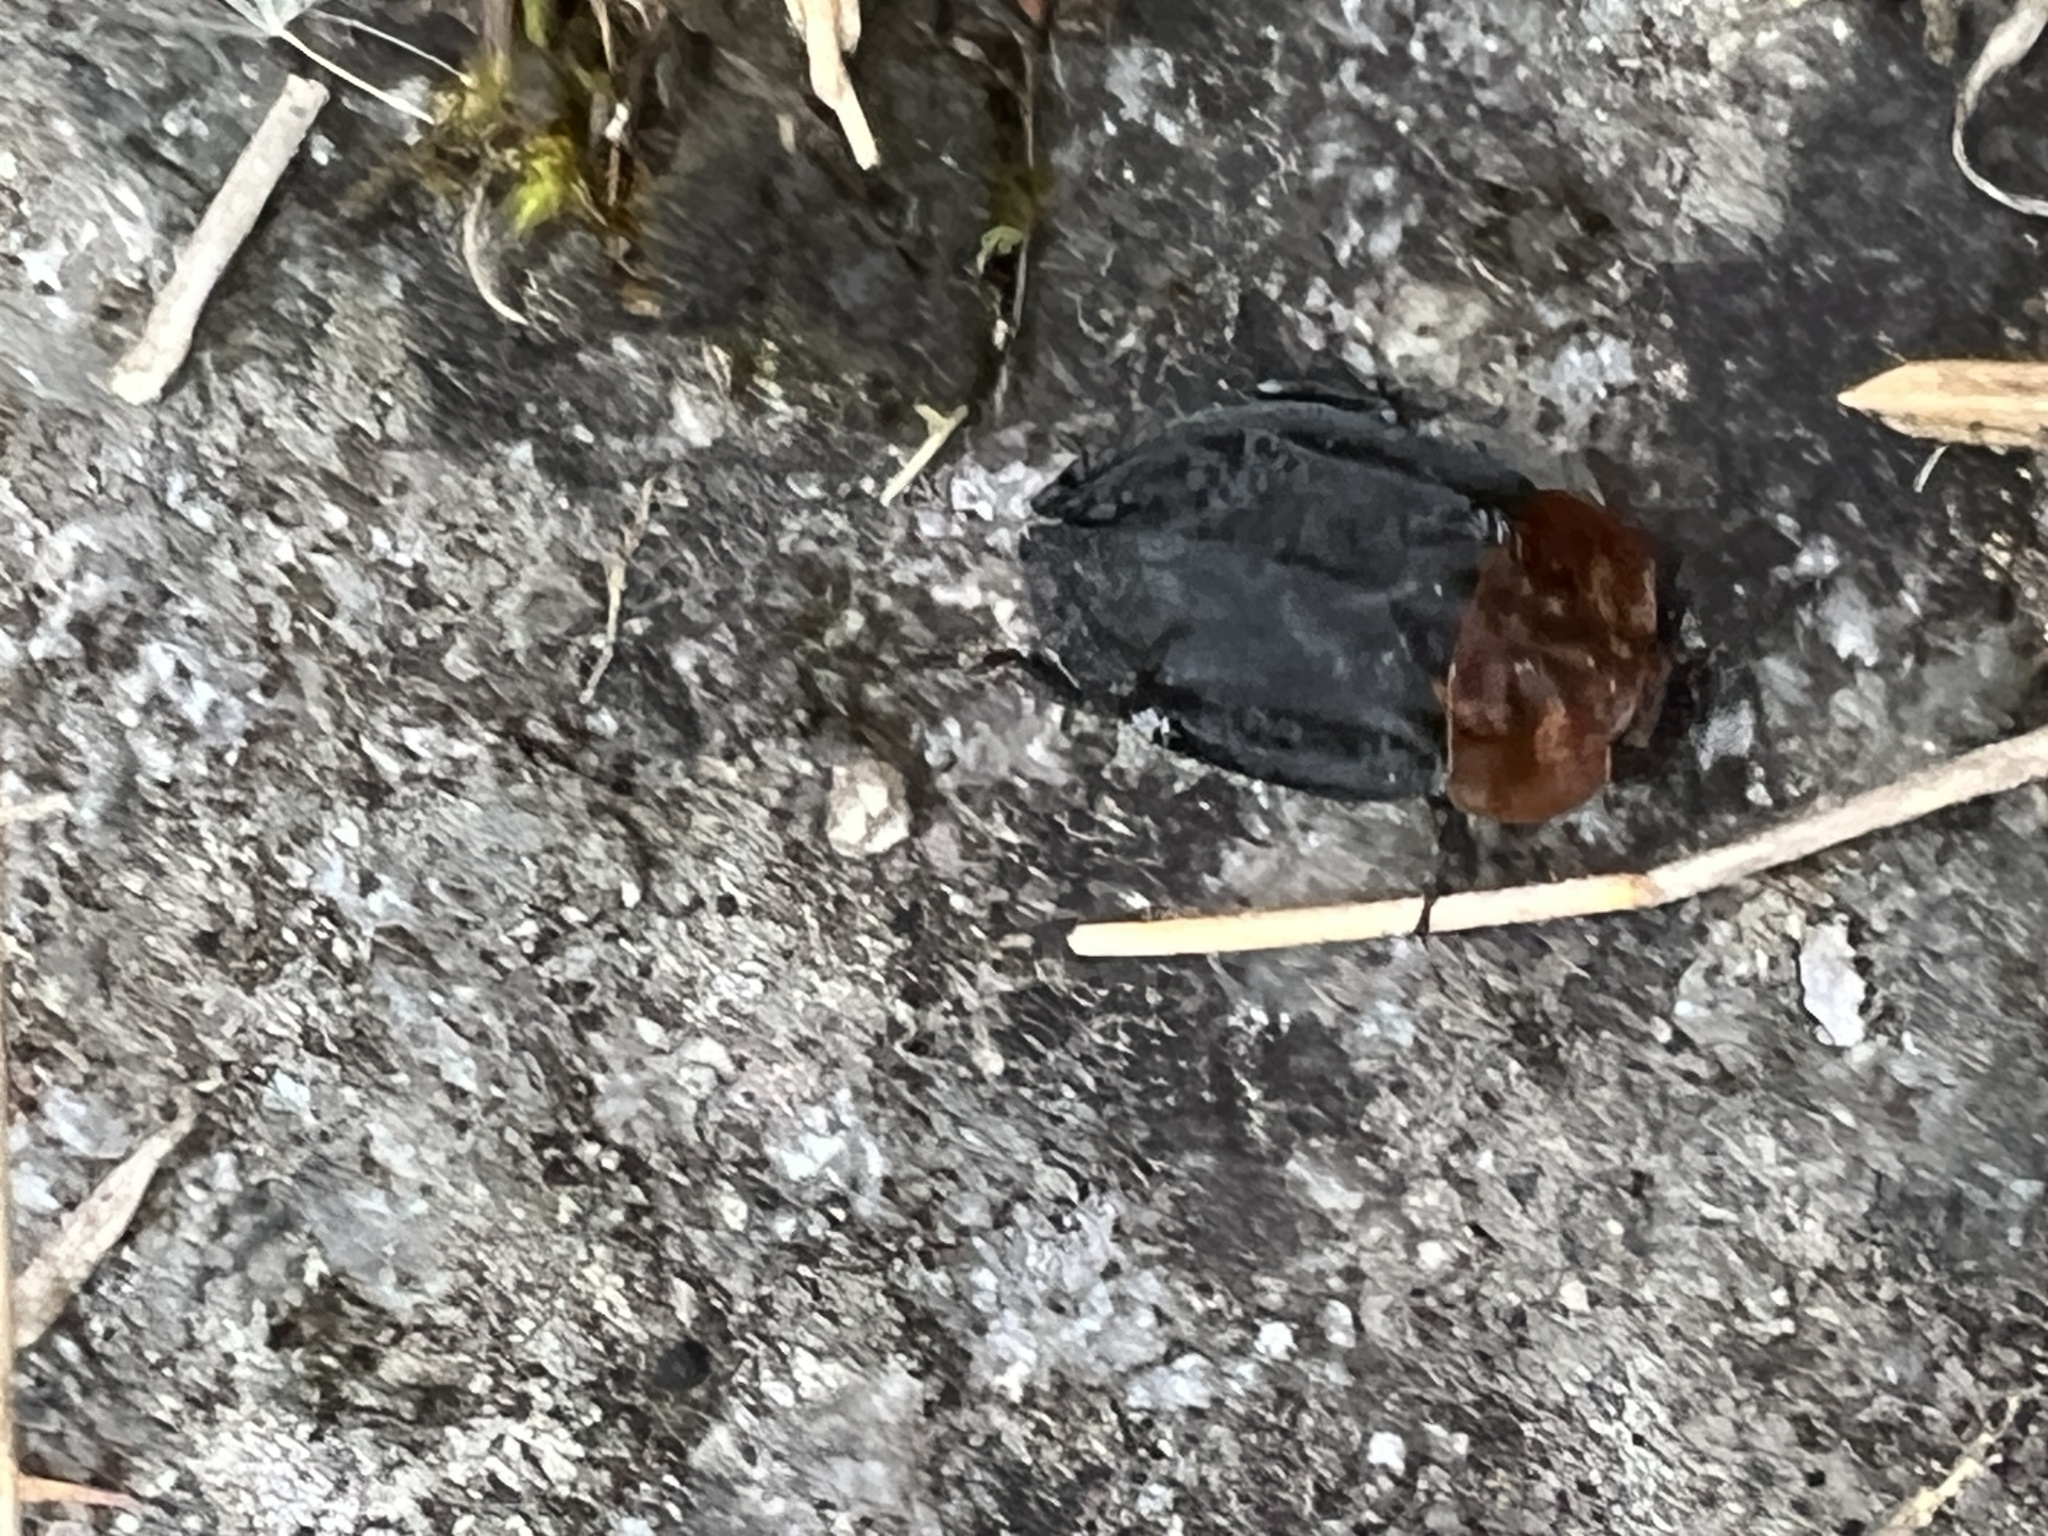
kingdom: Animalia
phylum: Arthropoda
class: Insecta
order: Coleoptera
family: Staphylinidae
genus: Oiceoptoma
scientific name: Oiceoptoma thoracicum
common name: Red-breasted carrion beetle
